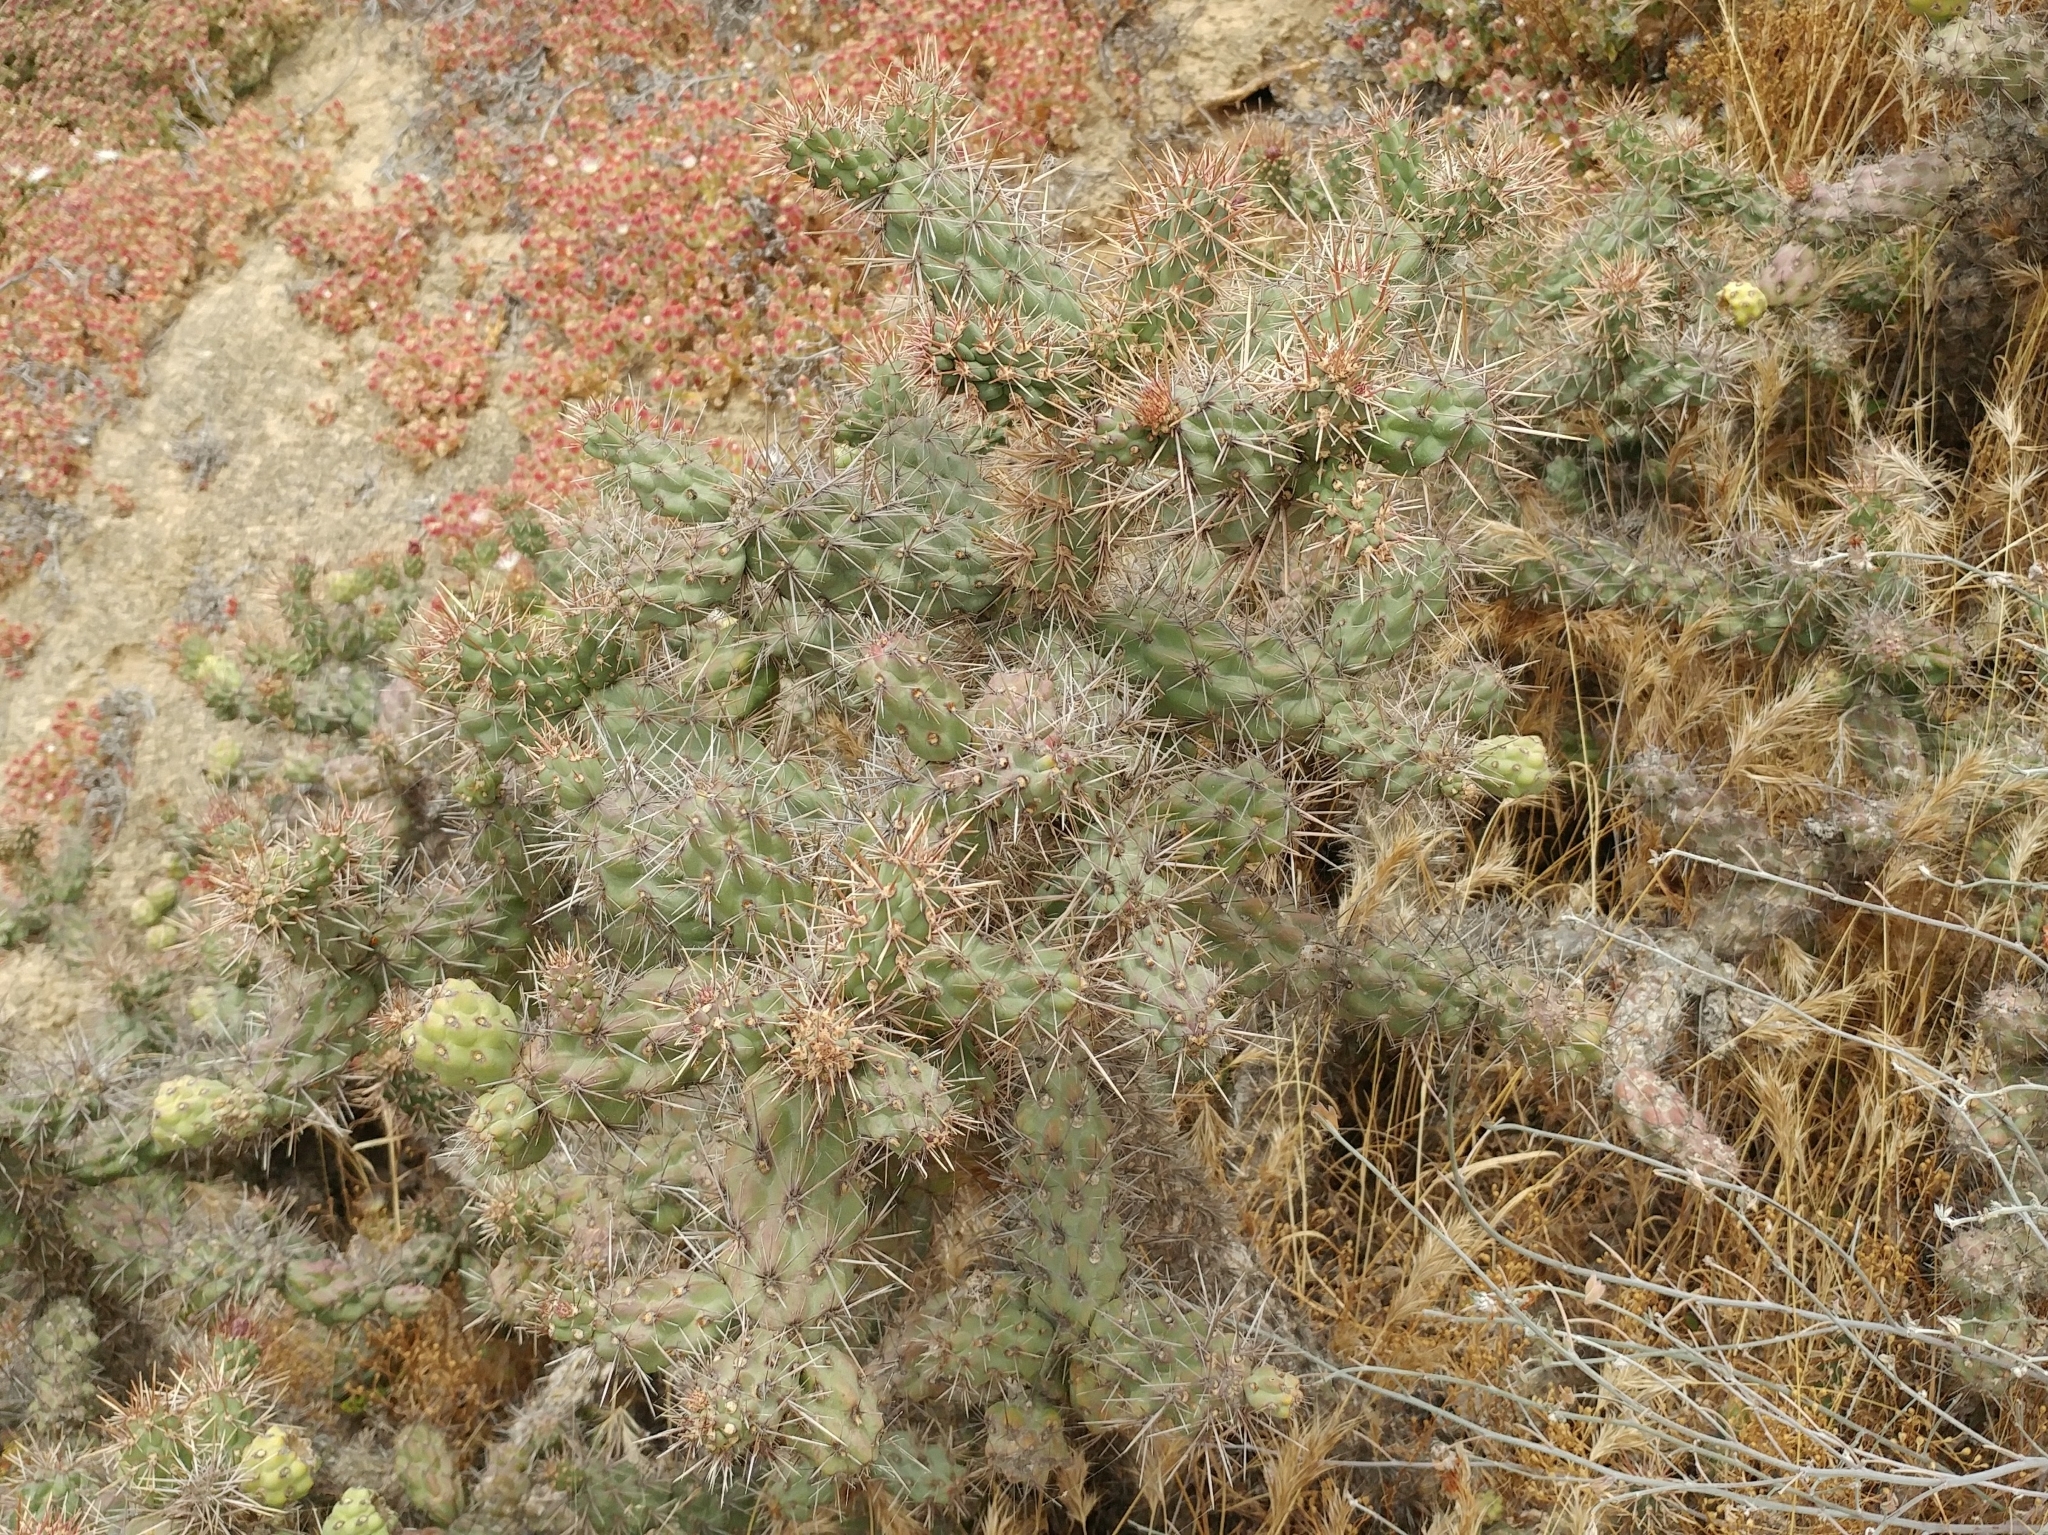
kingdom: Plantae
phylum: Tracheophyta
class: Magnoliopsida
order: Caryophyllales
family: Cactaceae
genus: Cylindropuntia
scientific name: Cylindropuntia prolifera
